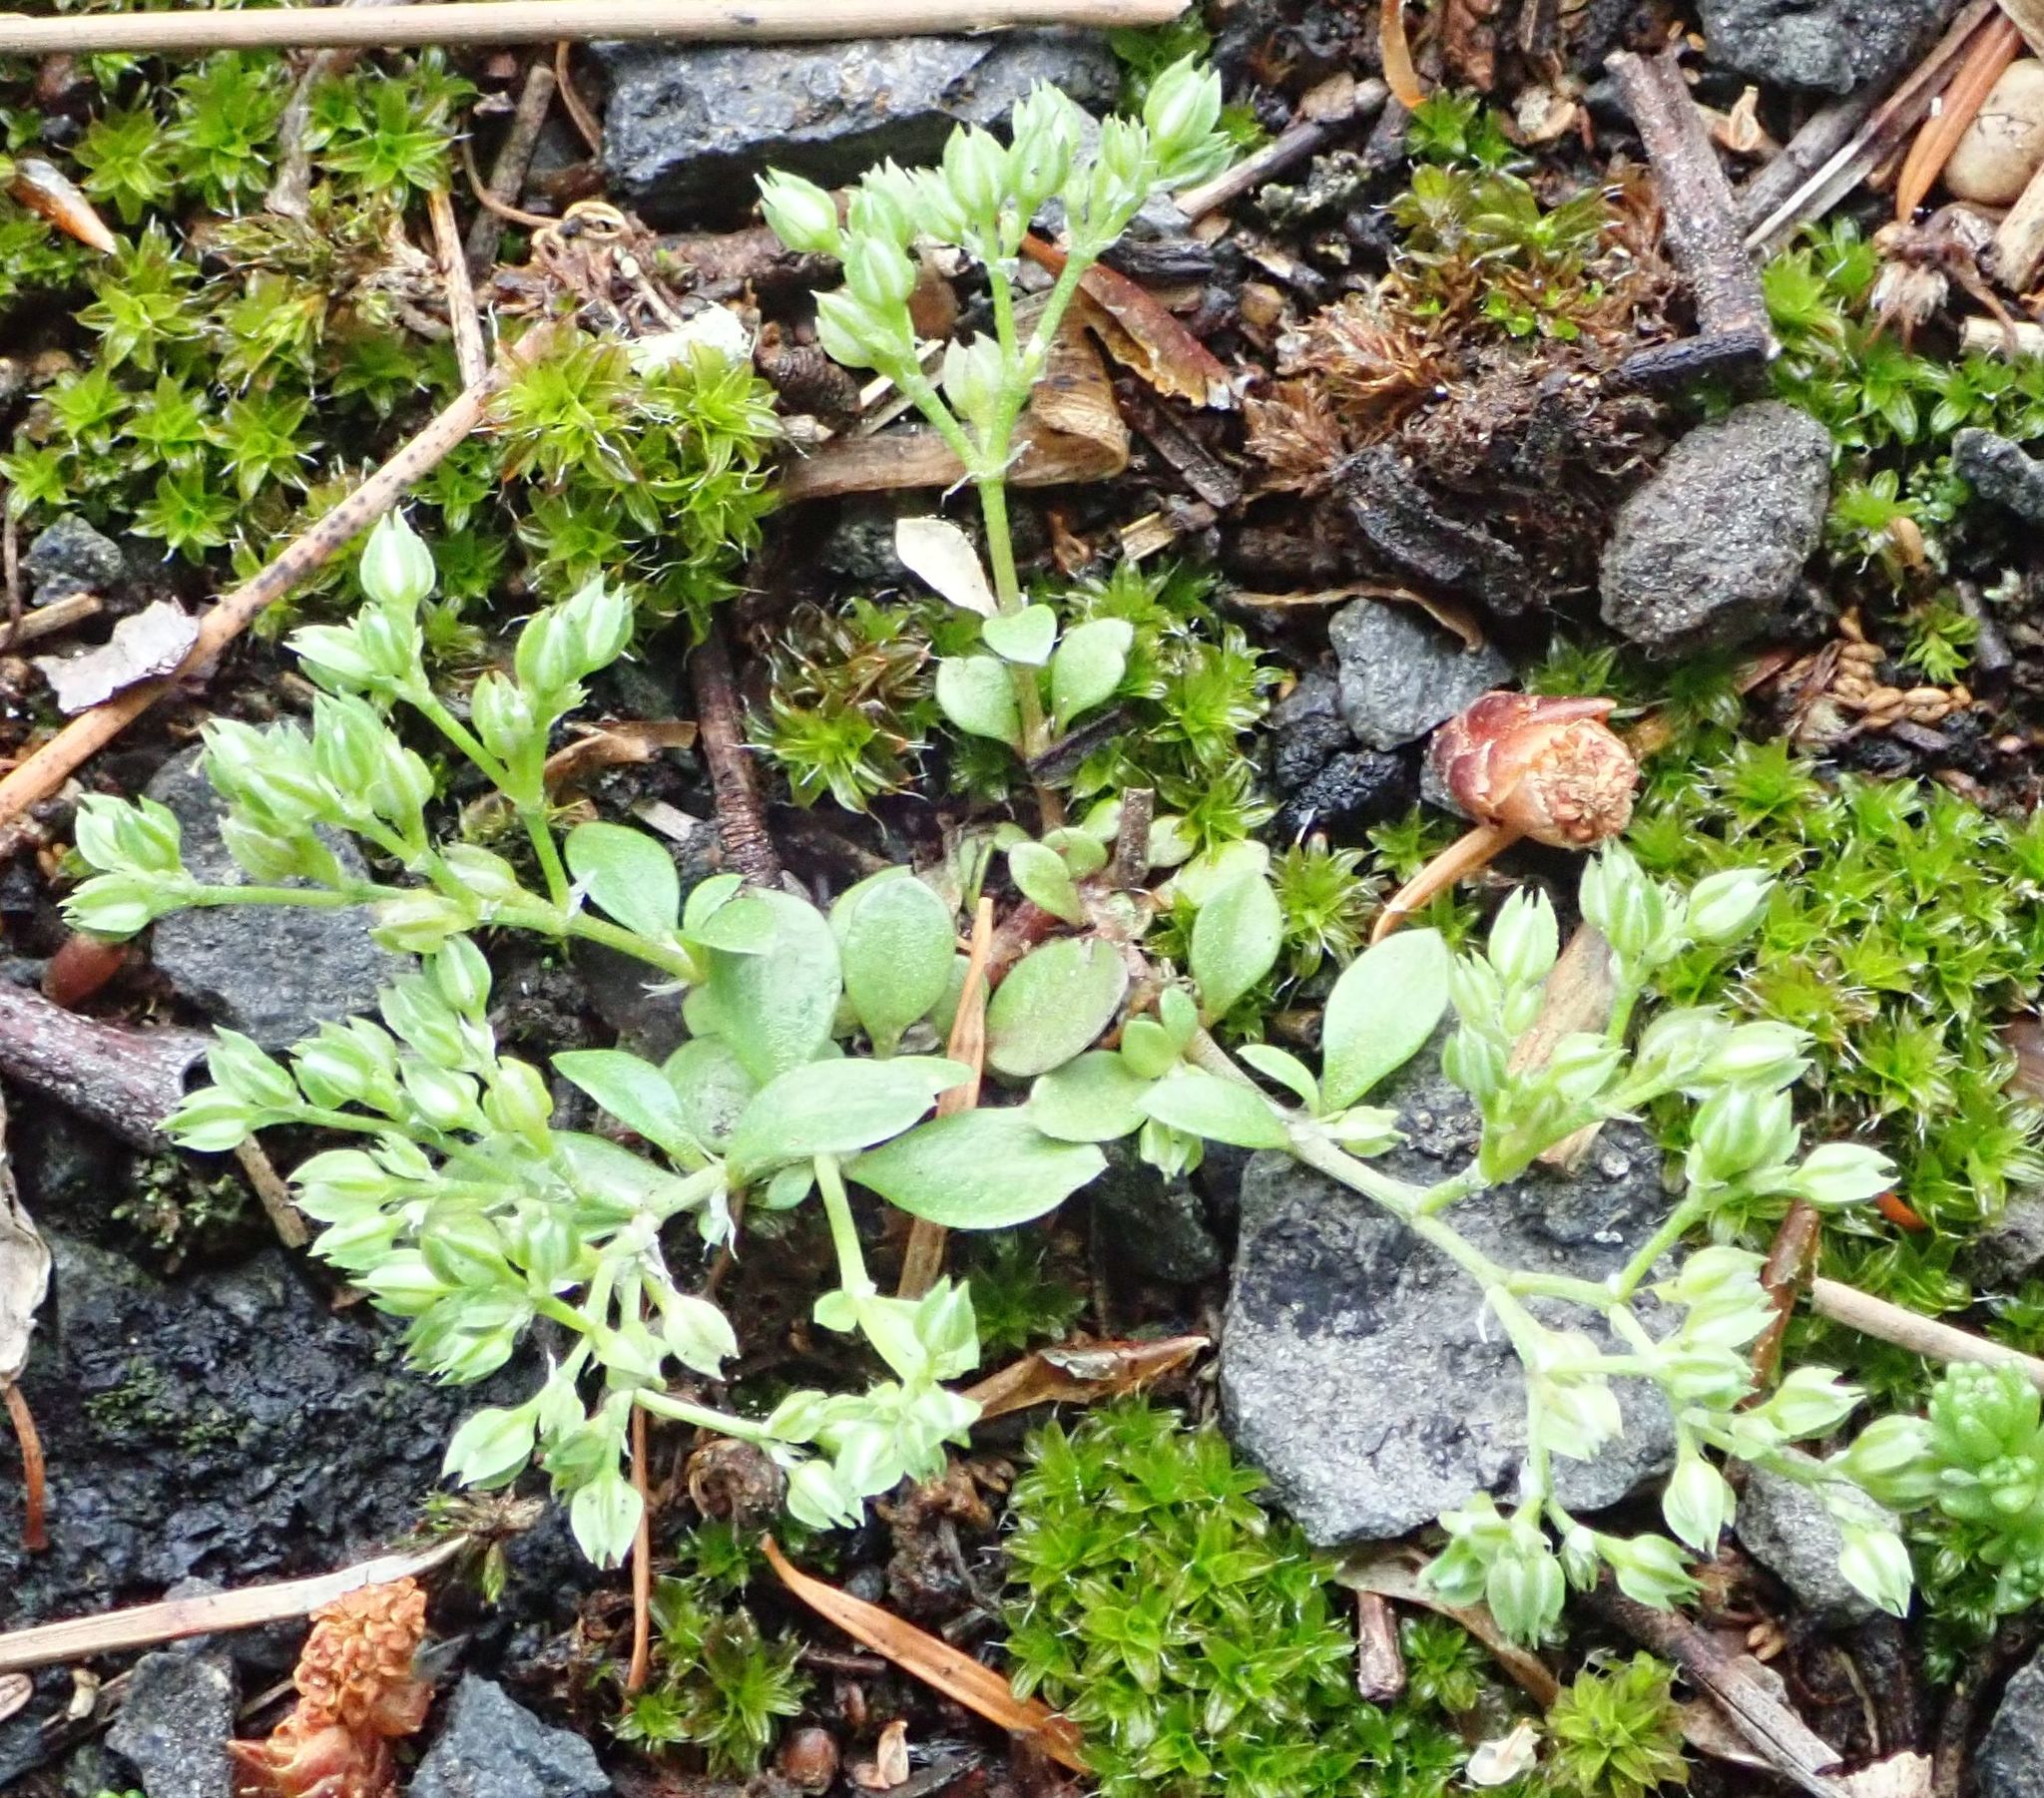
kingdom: Plantae
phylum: Tracheophyta
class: Magnoliopsida
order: Caryophyllales
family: Caryophyllaceae
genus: Polycarpon
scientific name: Polycarpon tetraphyllum
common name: Four-leaved all-seed
